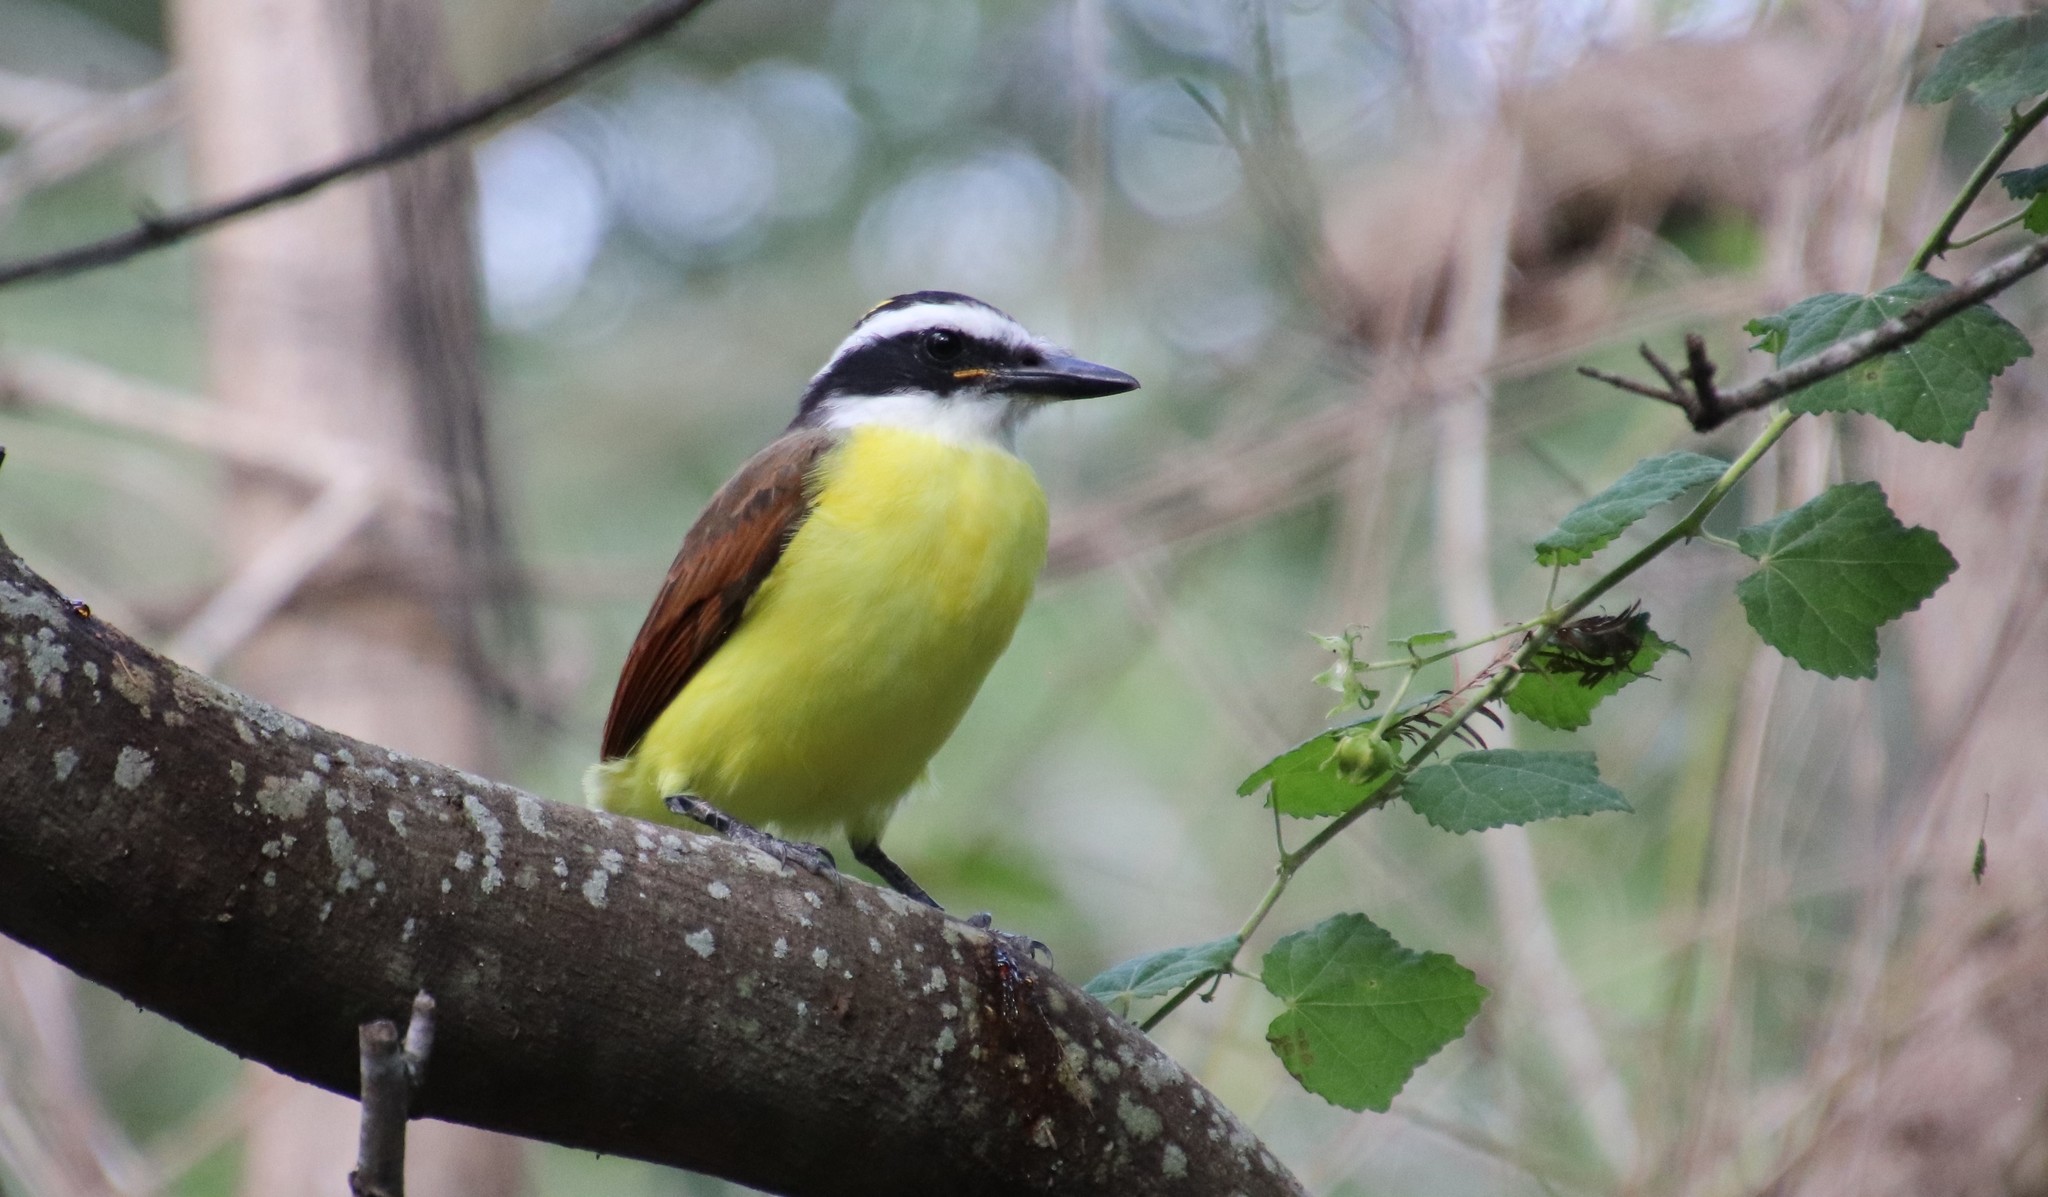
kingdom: Animalia
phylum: Chordata
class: Aves
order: Passeriformes
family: Tyrannidae
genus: Pitangus
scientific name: Pitangus sulphuratus
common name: Great kiskadee
